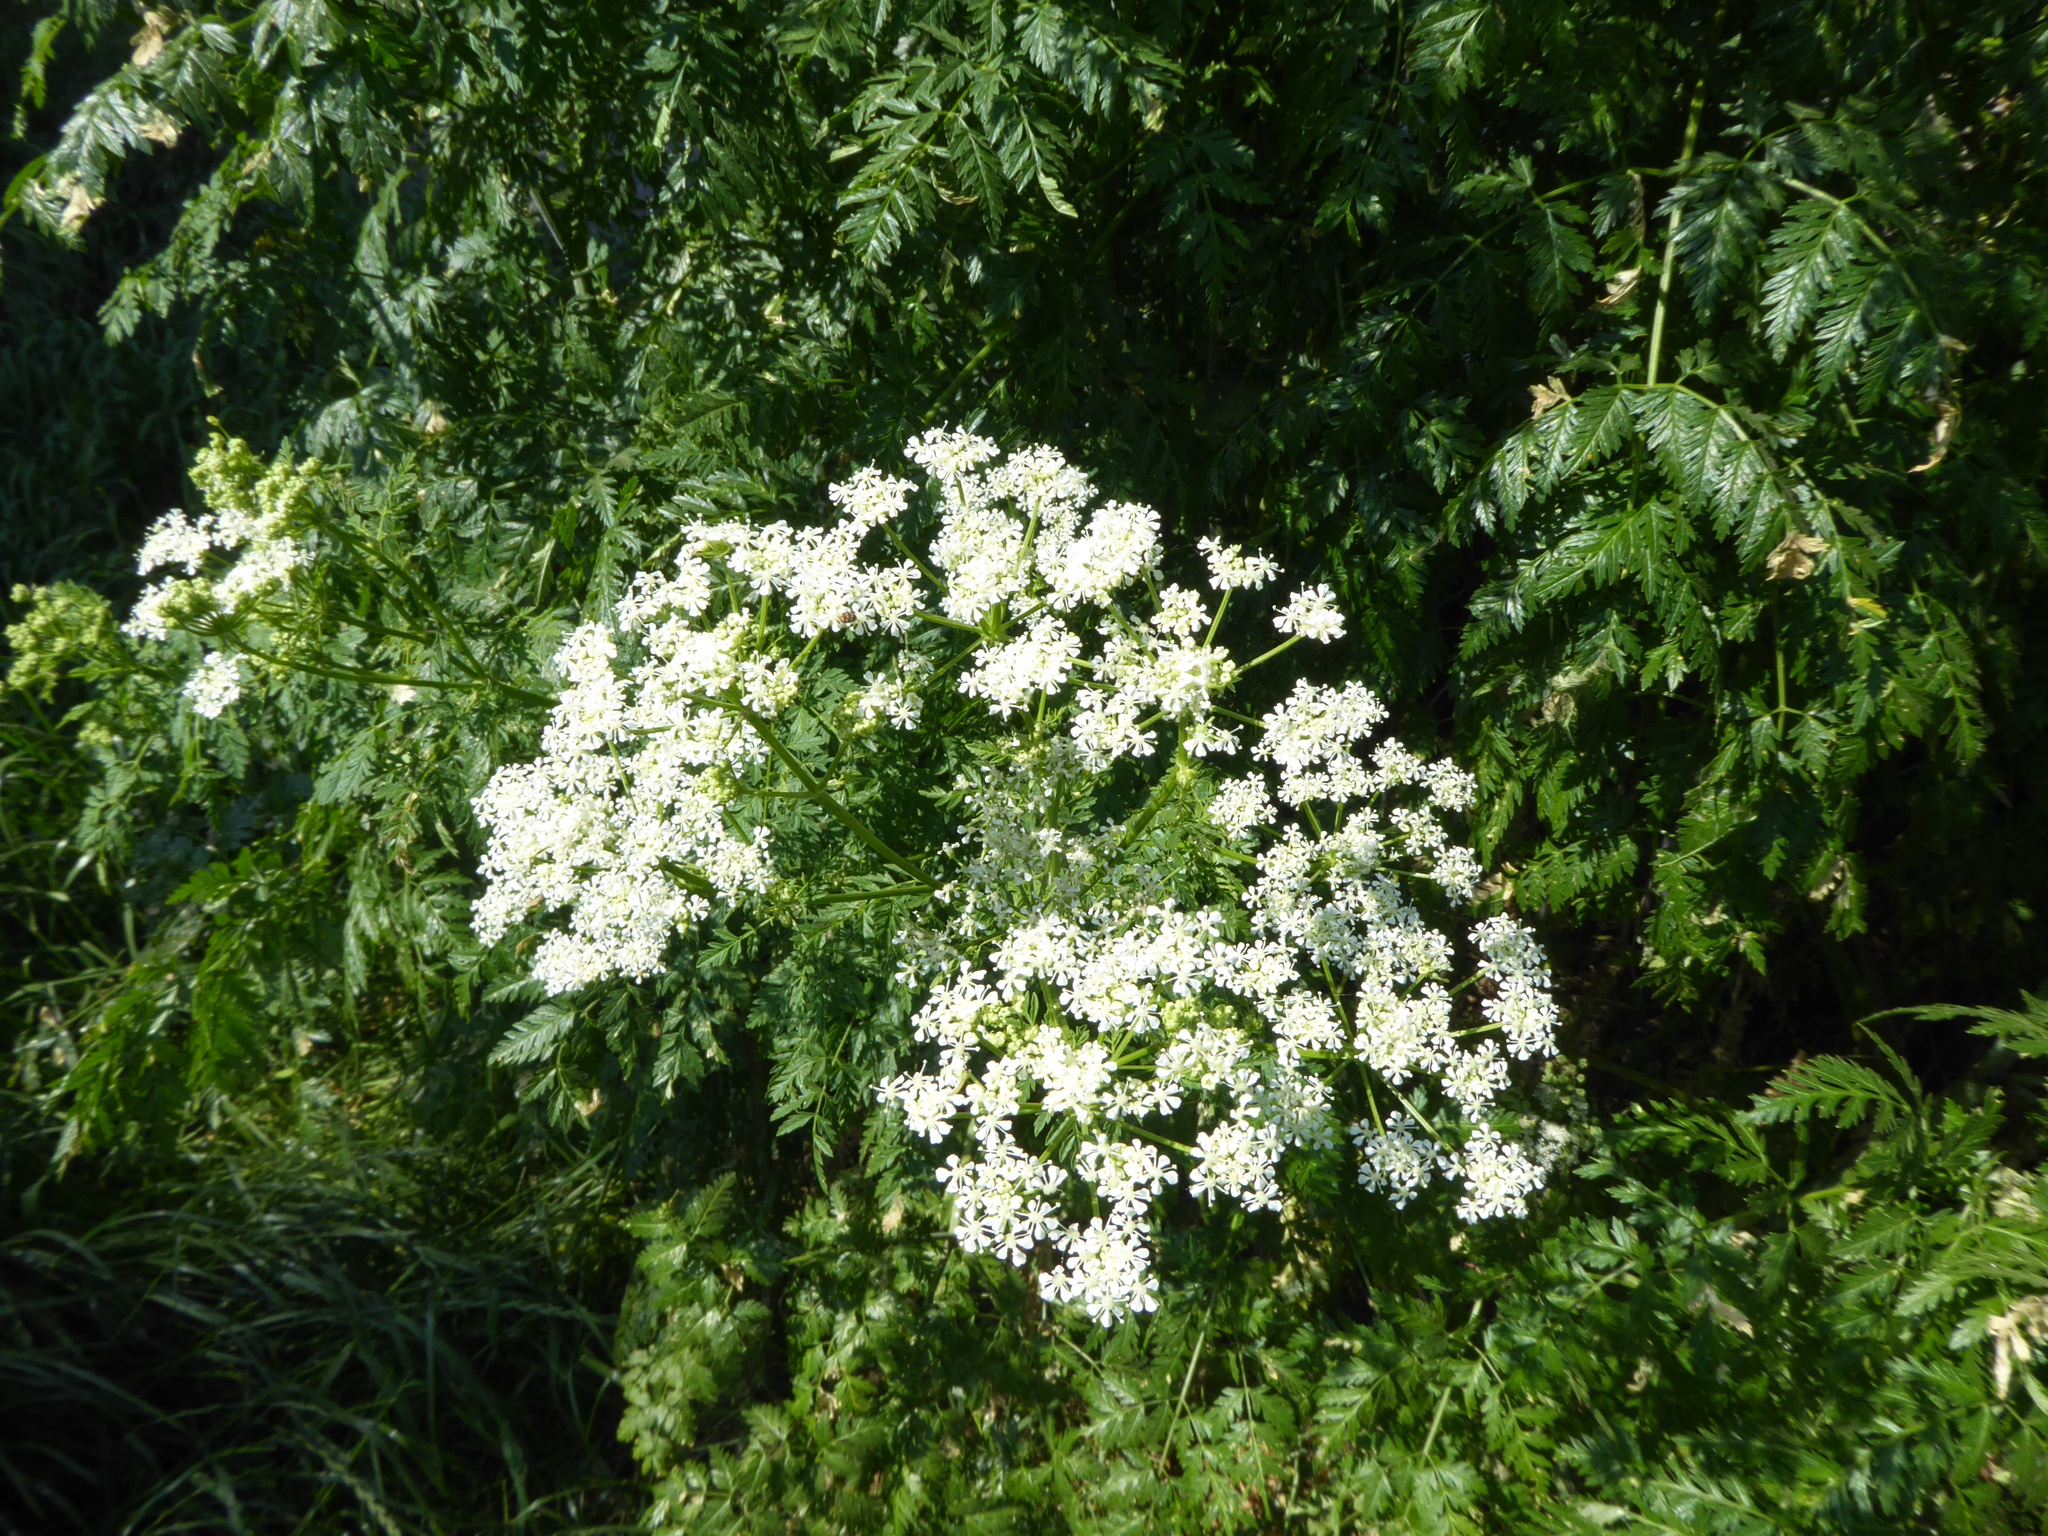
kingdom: Plantae
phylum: Tracheophyta
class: Magnoliopsida
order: Apiales
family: Apiaceae
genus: Conium
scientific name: Conium maculatum
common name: Hemlock
